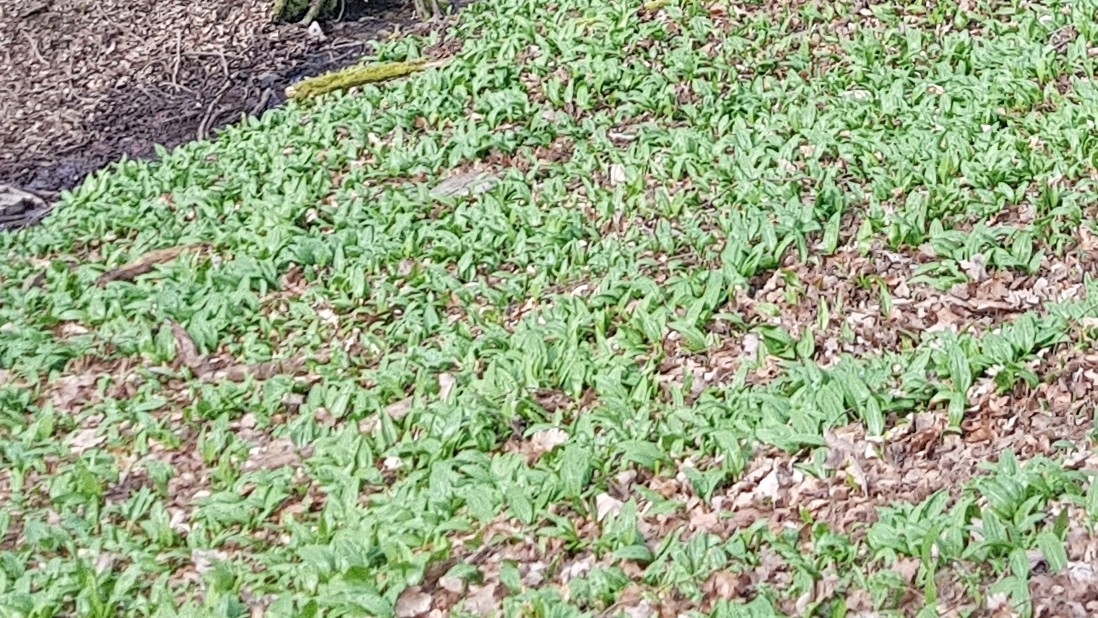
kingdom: Plantae
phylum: Tracheophyta
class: Liliopsida
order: Asparagales
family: Amaryllidaceae
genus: Allium
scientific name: Allium ursinum
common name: Ramsons
